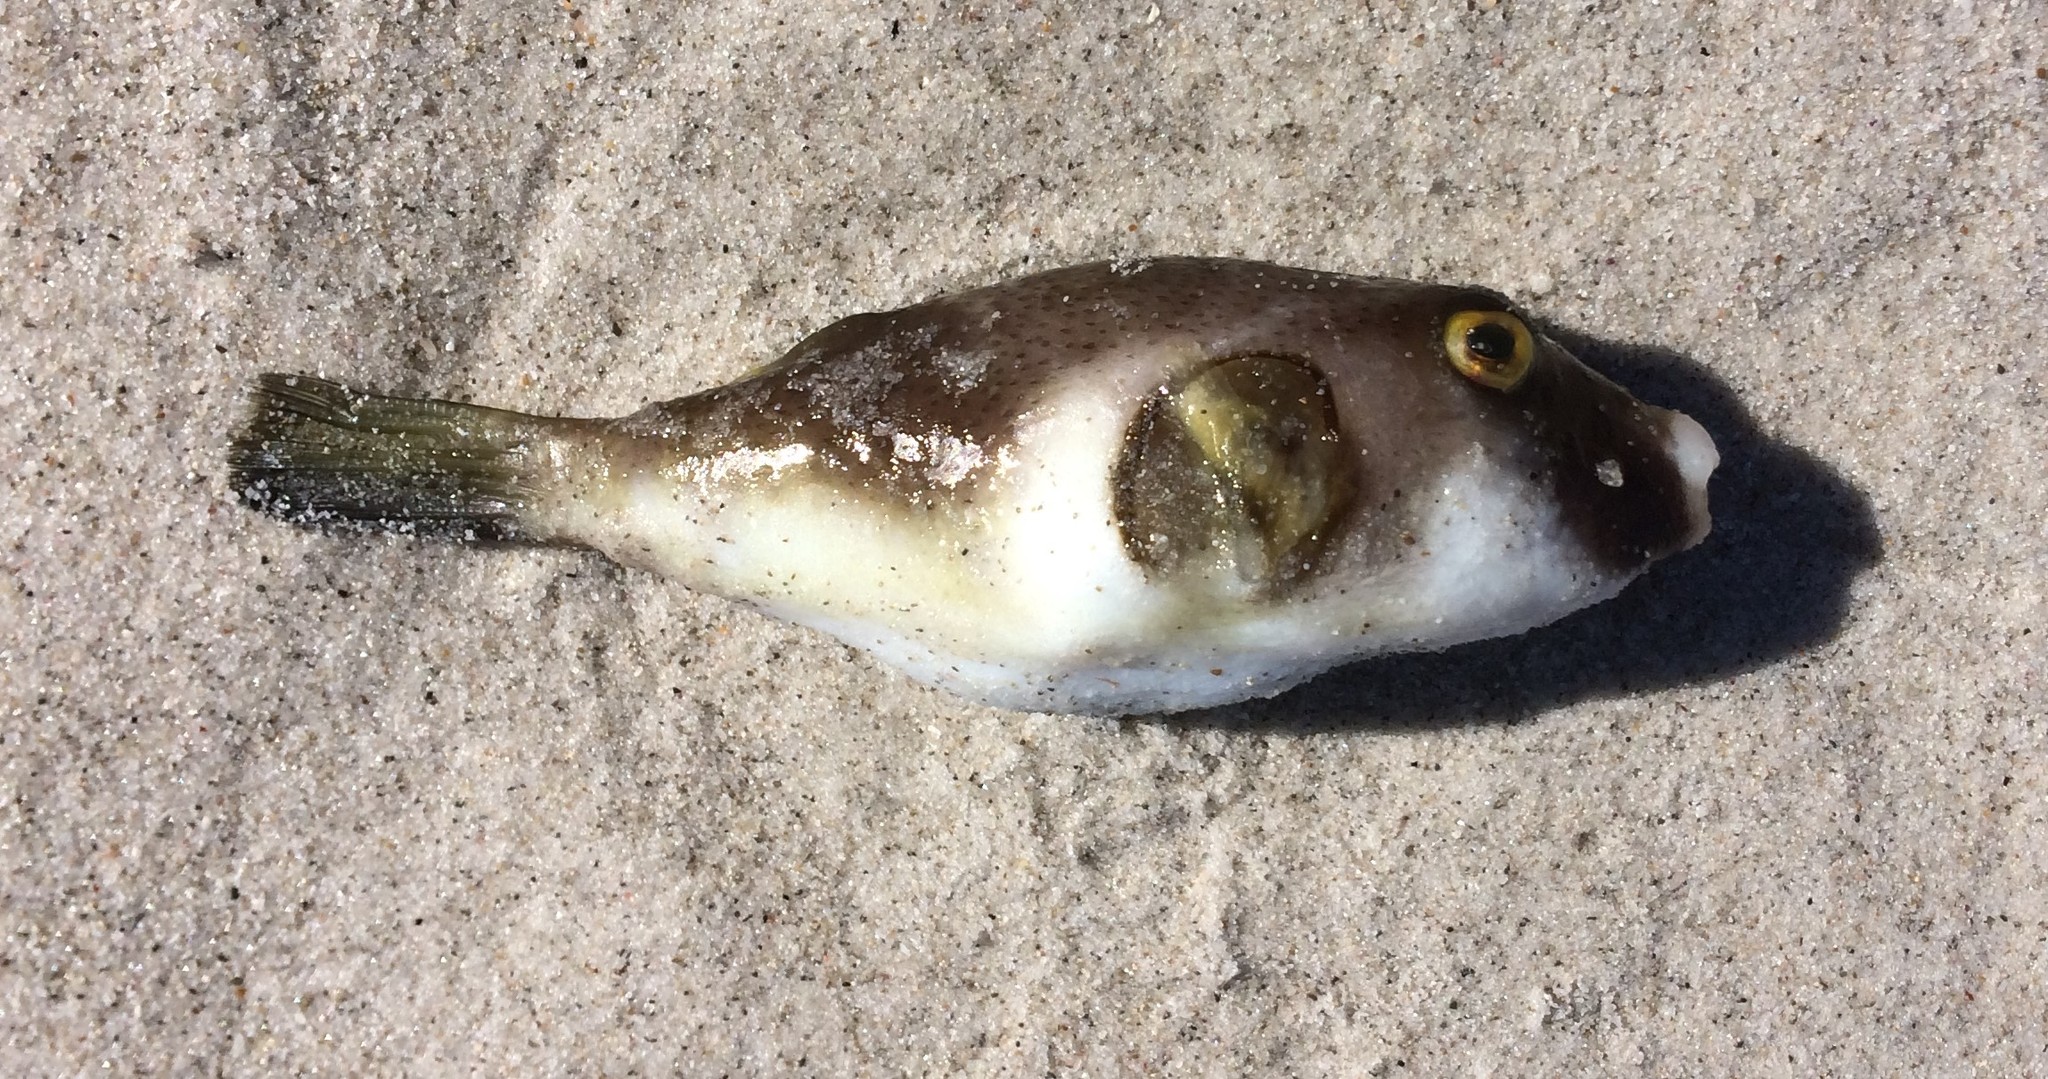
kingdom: Animalia
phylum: Chordata
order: Tetraodontiformes
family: Tetraodontidae
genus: Omegophora
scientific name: Omegophora armilla
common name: Ringed pufferfish
